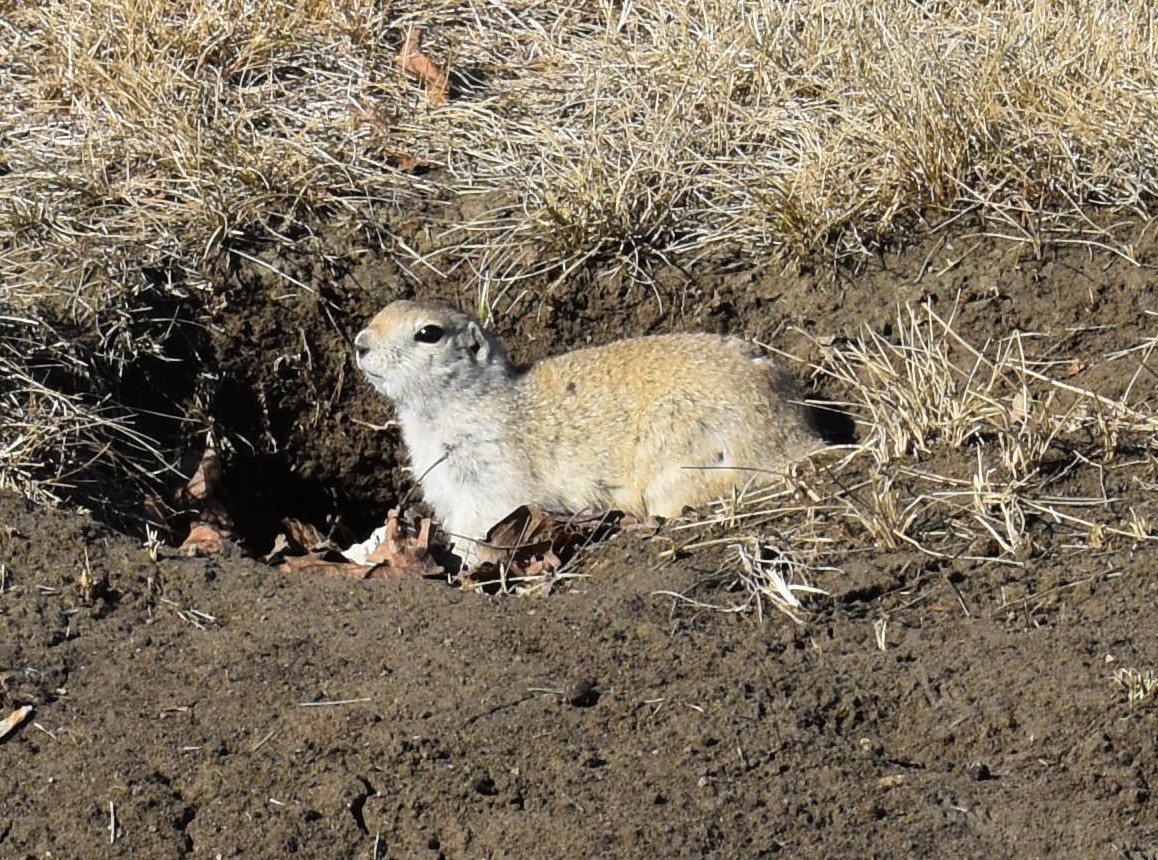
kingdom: Animalia
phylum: Chordata
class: Mammalia
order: Rodentia
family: Sciuridae
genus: Urocitellus
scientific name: Urocitellus richardsonii
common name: Richardson's ground squirrel
